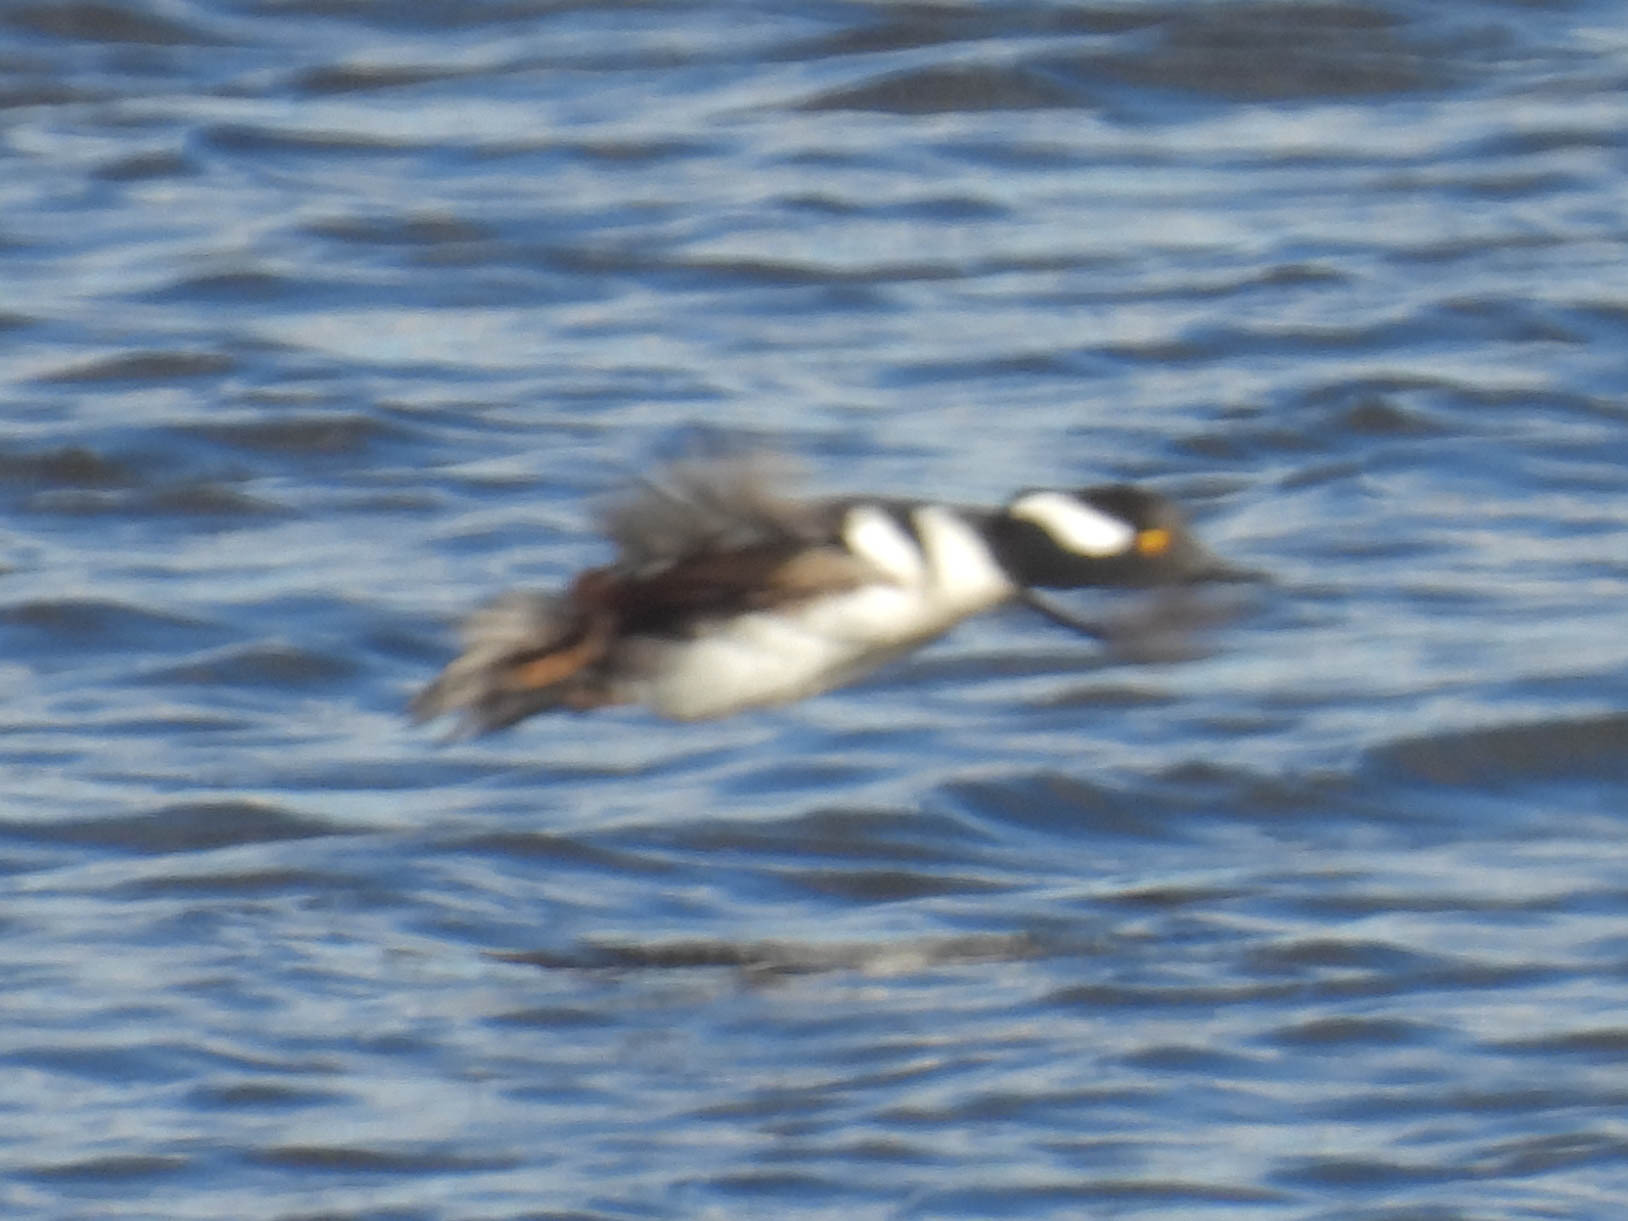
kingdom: Animalia
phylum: Chordata
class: Aves
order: Anseriformes
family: Anatidae
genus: Lophodytes
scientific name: Lophodytes cucullatus
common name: Hooded merganser
